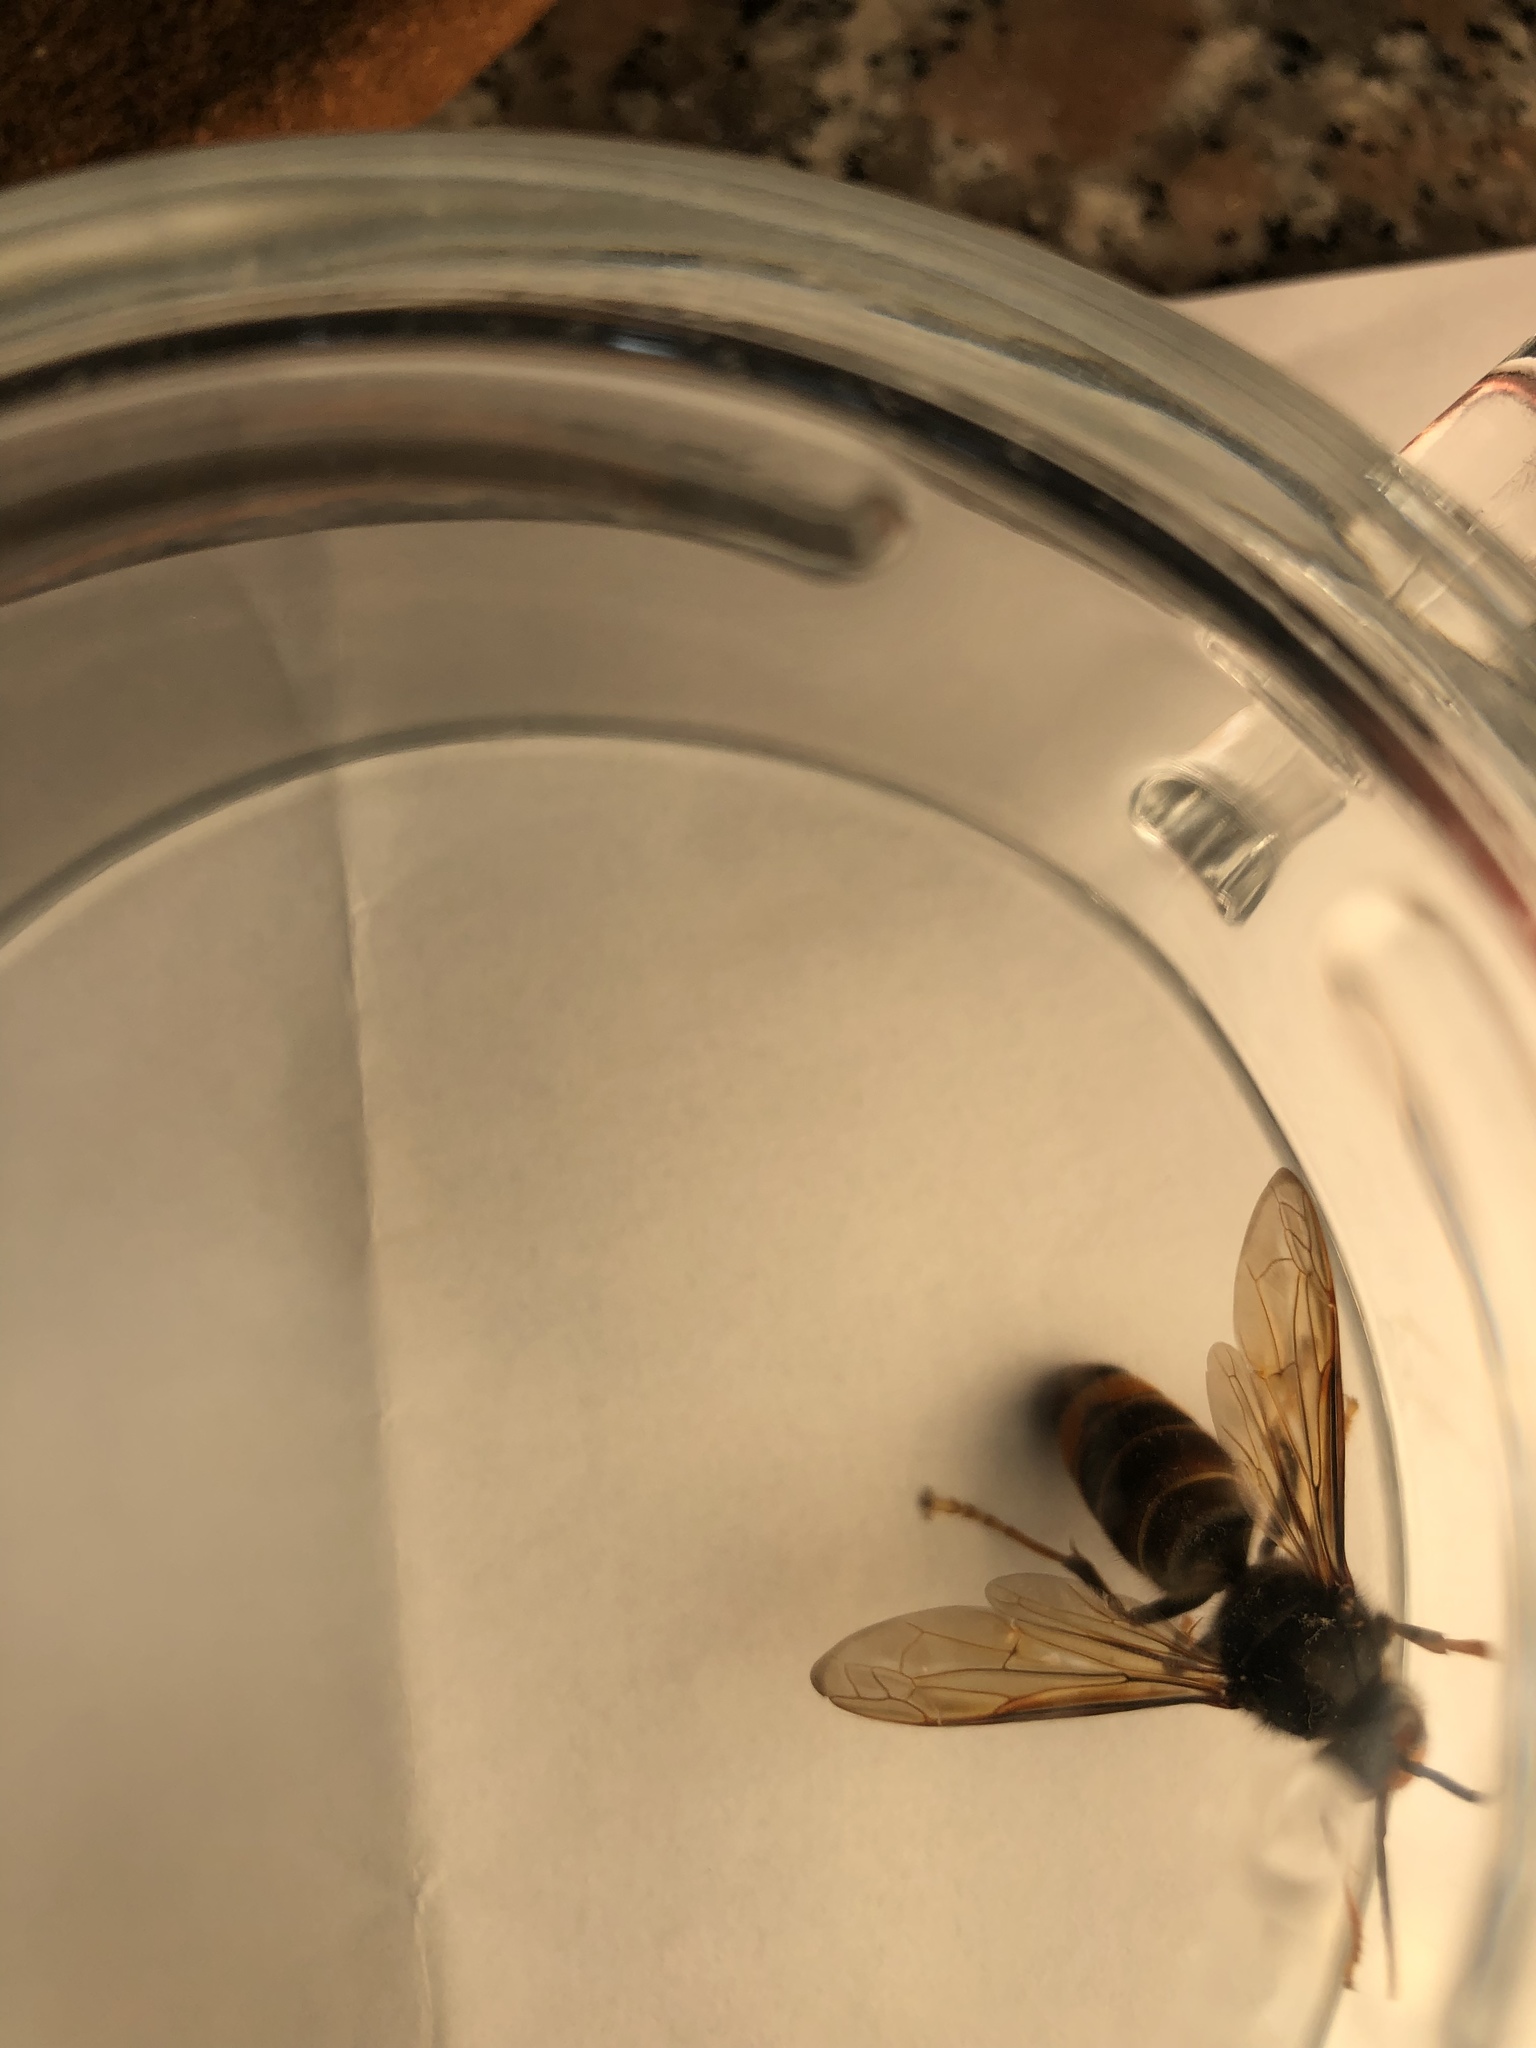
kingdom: Animalia
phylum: Arthropoda
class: Insecta
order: Hymenoptera
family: Vespidae
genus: Vespa
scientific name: Vespa velutina
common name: Asian hornet
